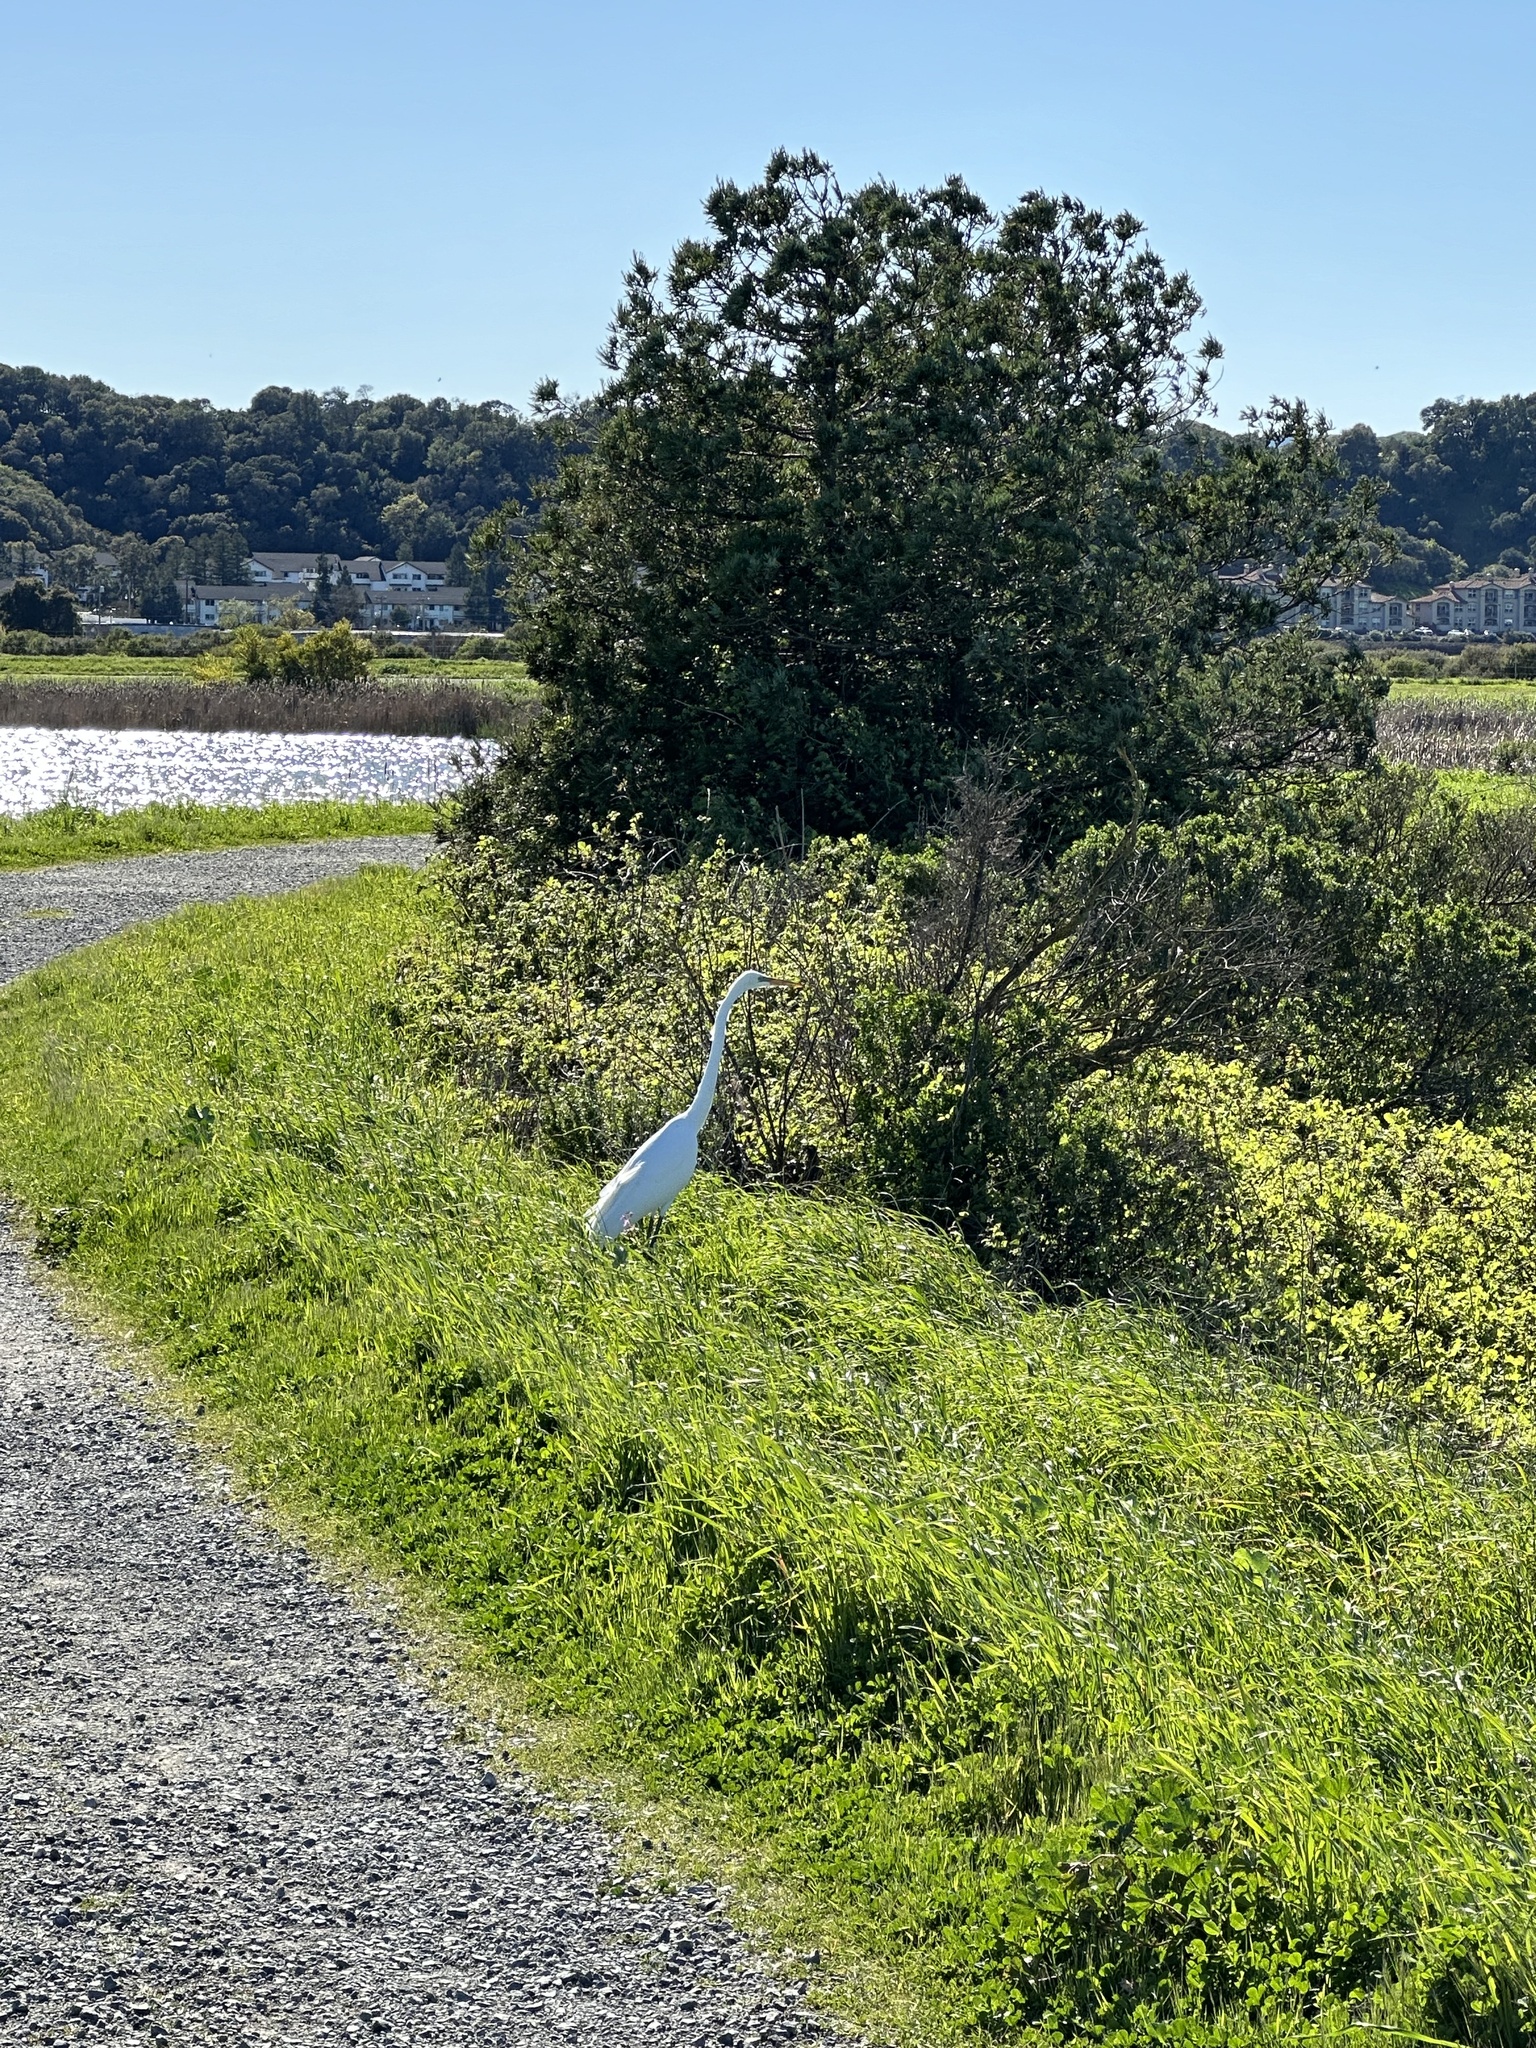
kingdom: Animalia
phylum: Chordata
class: Aves
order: Pelecaniformes
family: Ardeidae
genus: Ardea
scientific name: Ardea alba
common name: Great egret
